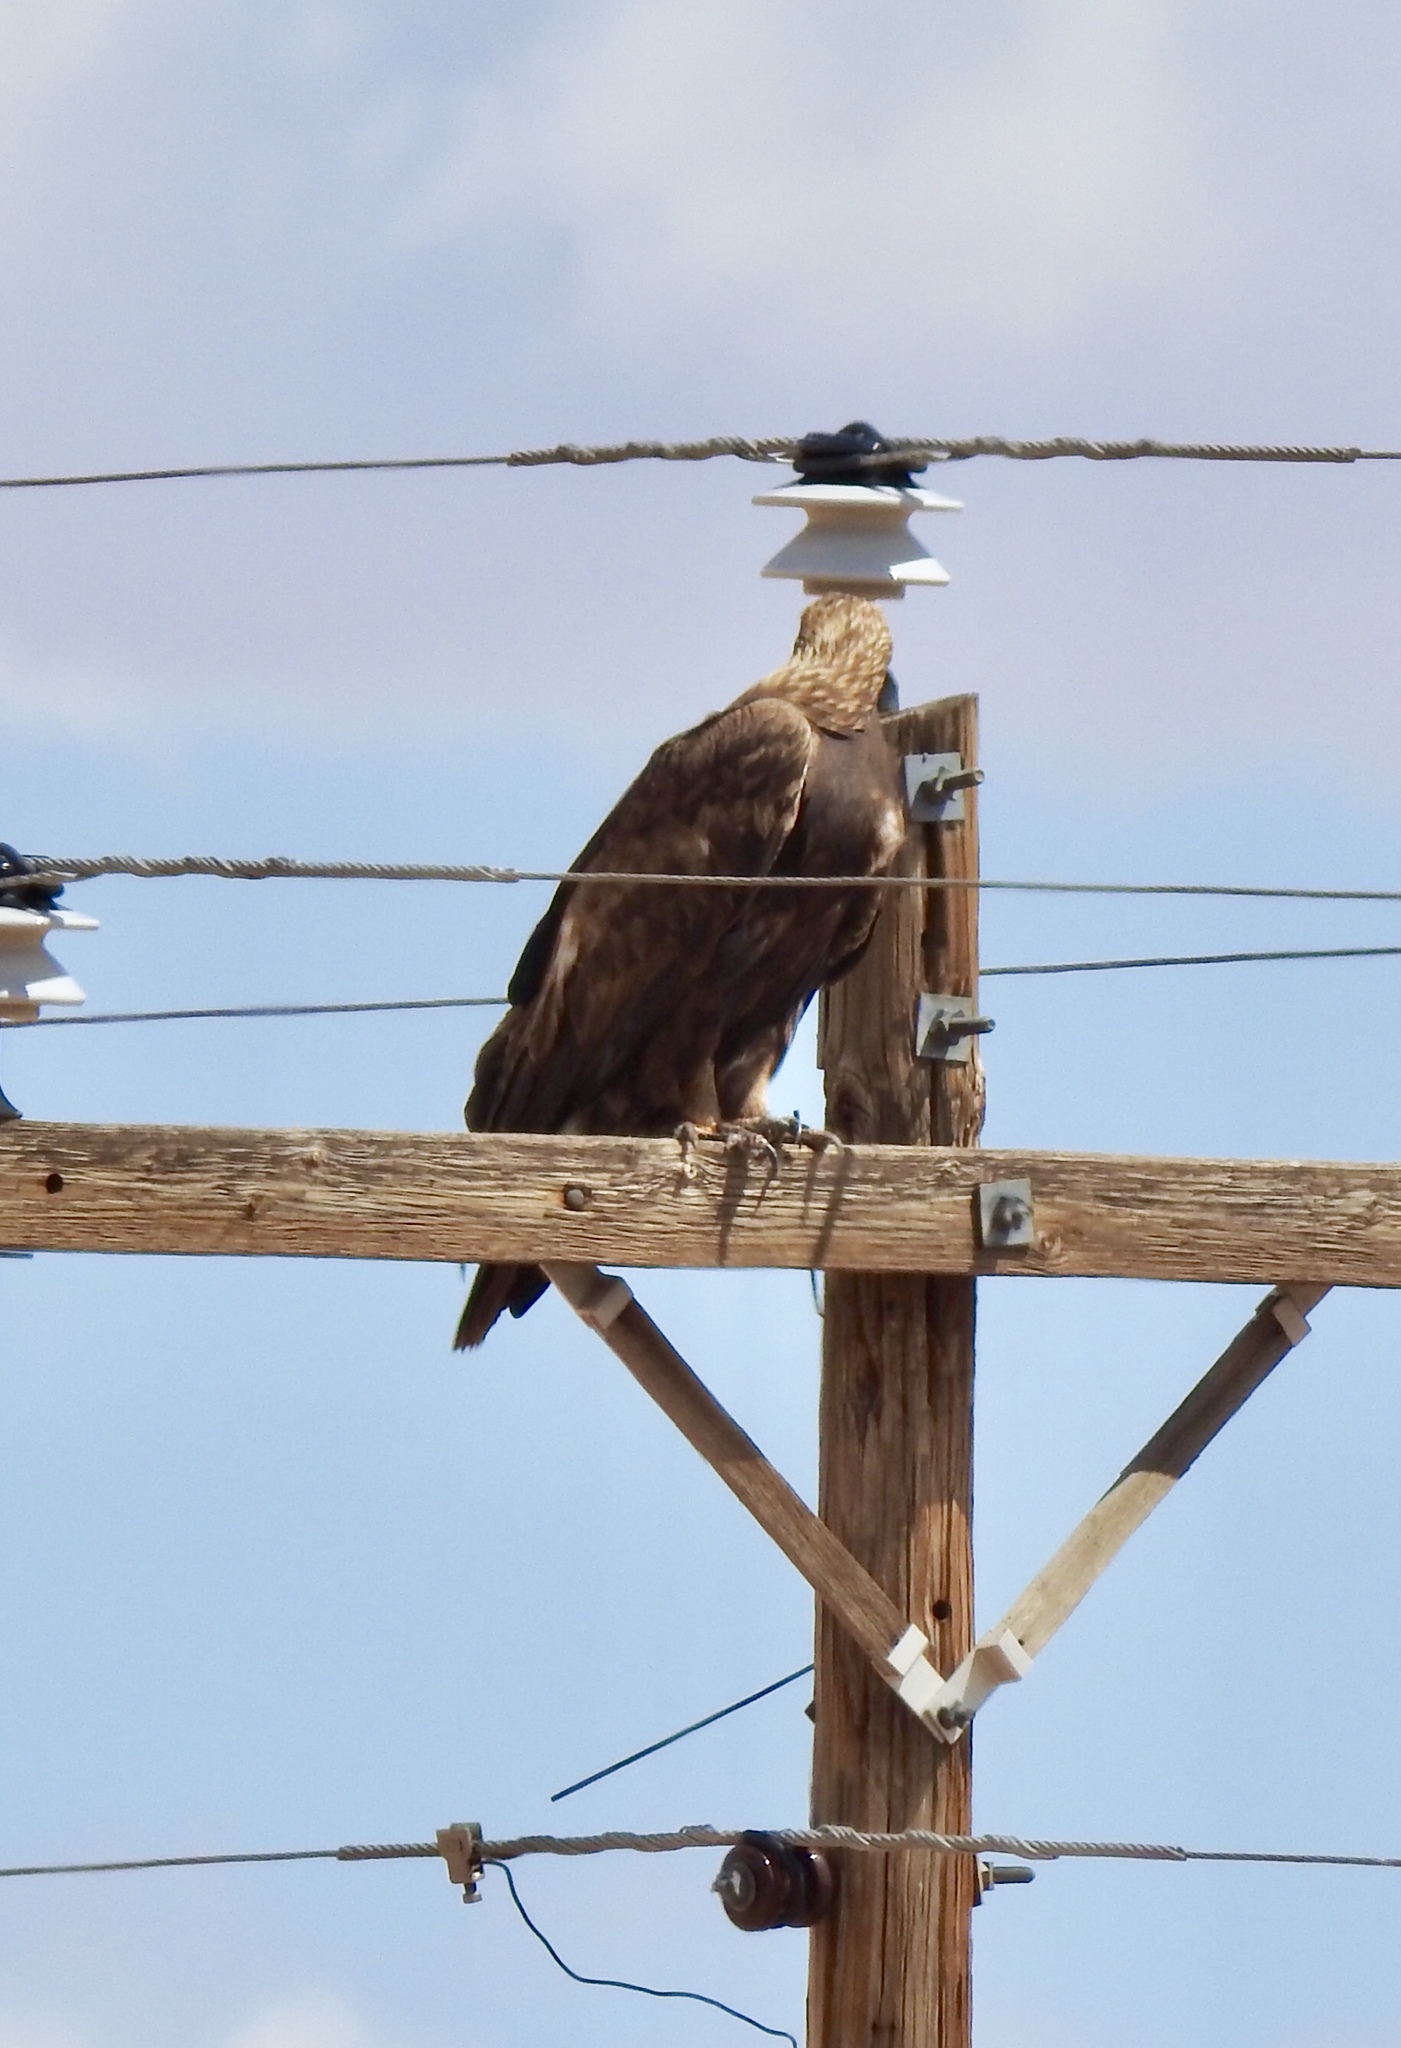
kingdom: Animalia
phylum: Chordata
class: Aves
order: Accipitriformes
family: Accipitridae
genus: Aquila
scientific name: Aquila chrysaetos
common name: Golden eagle
